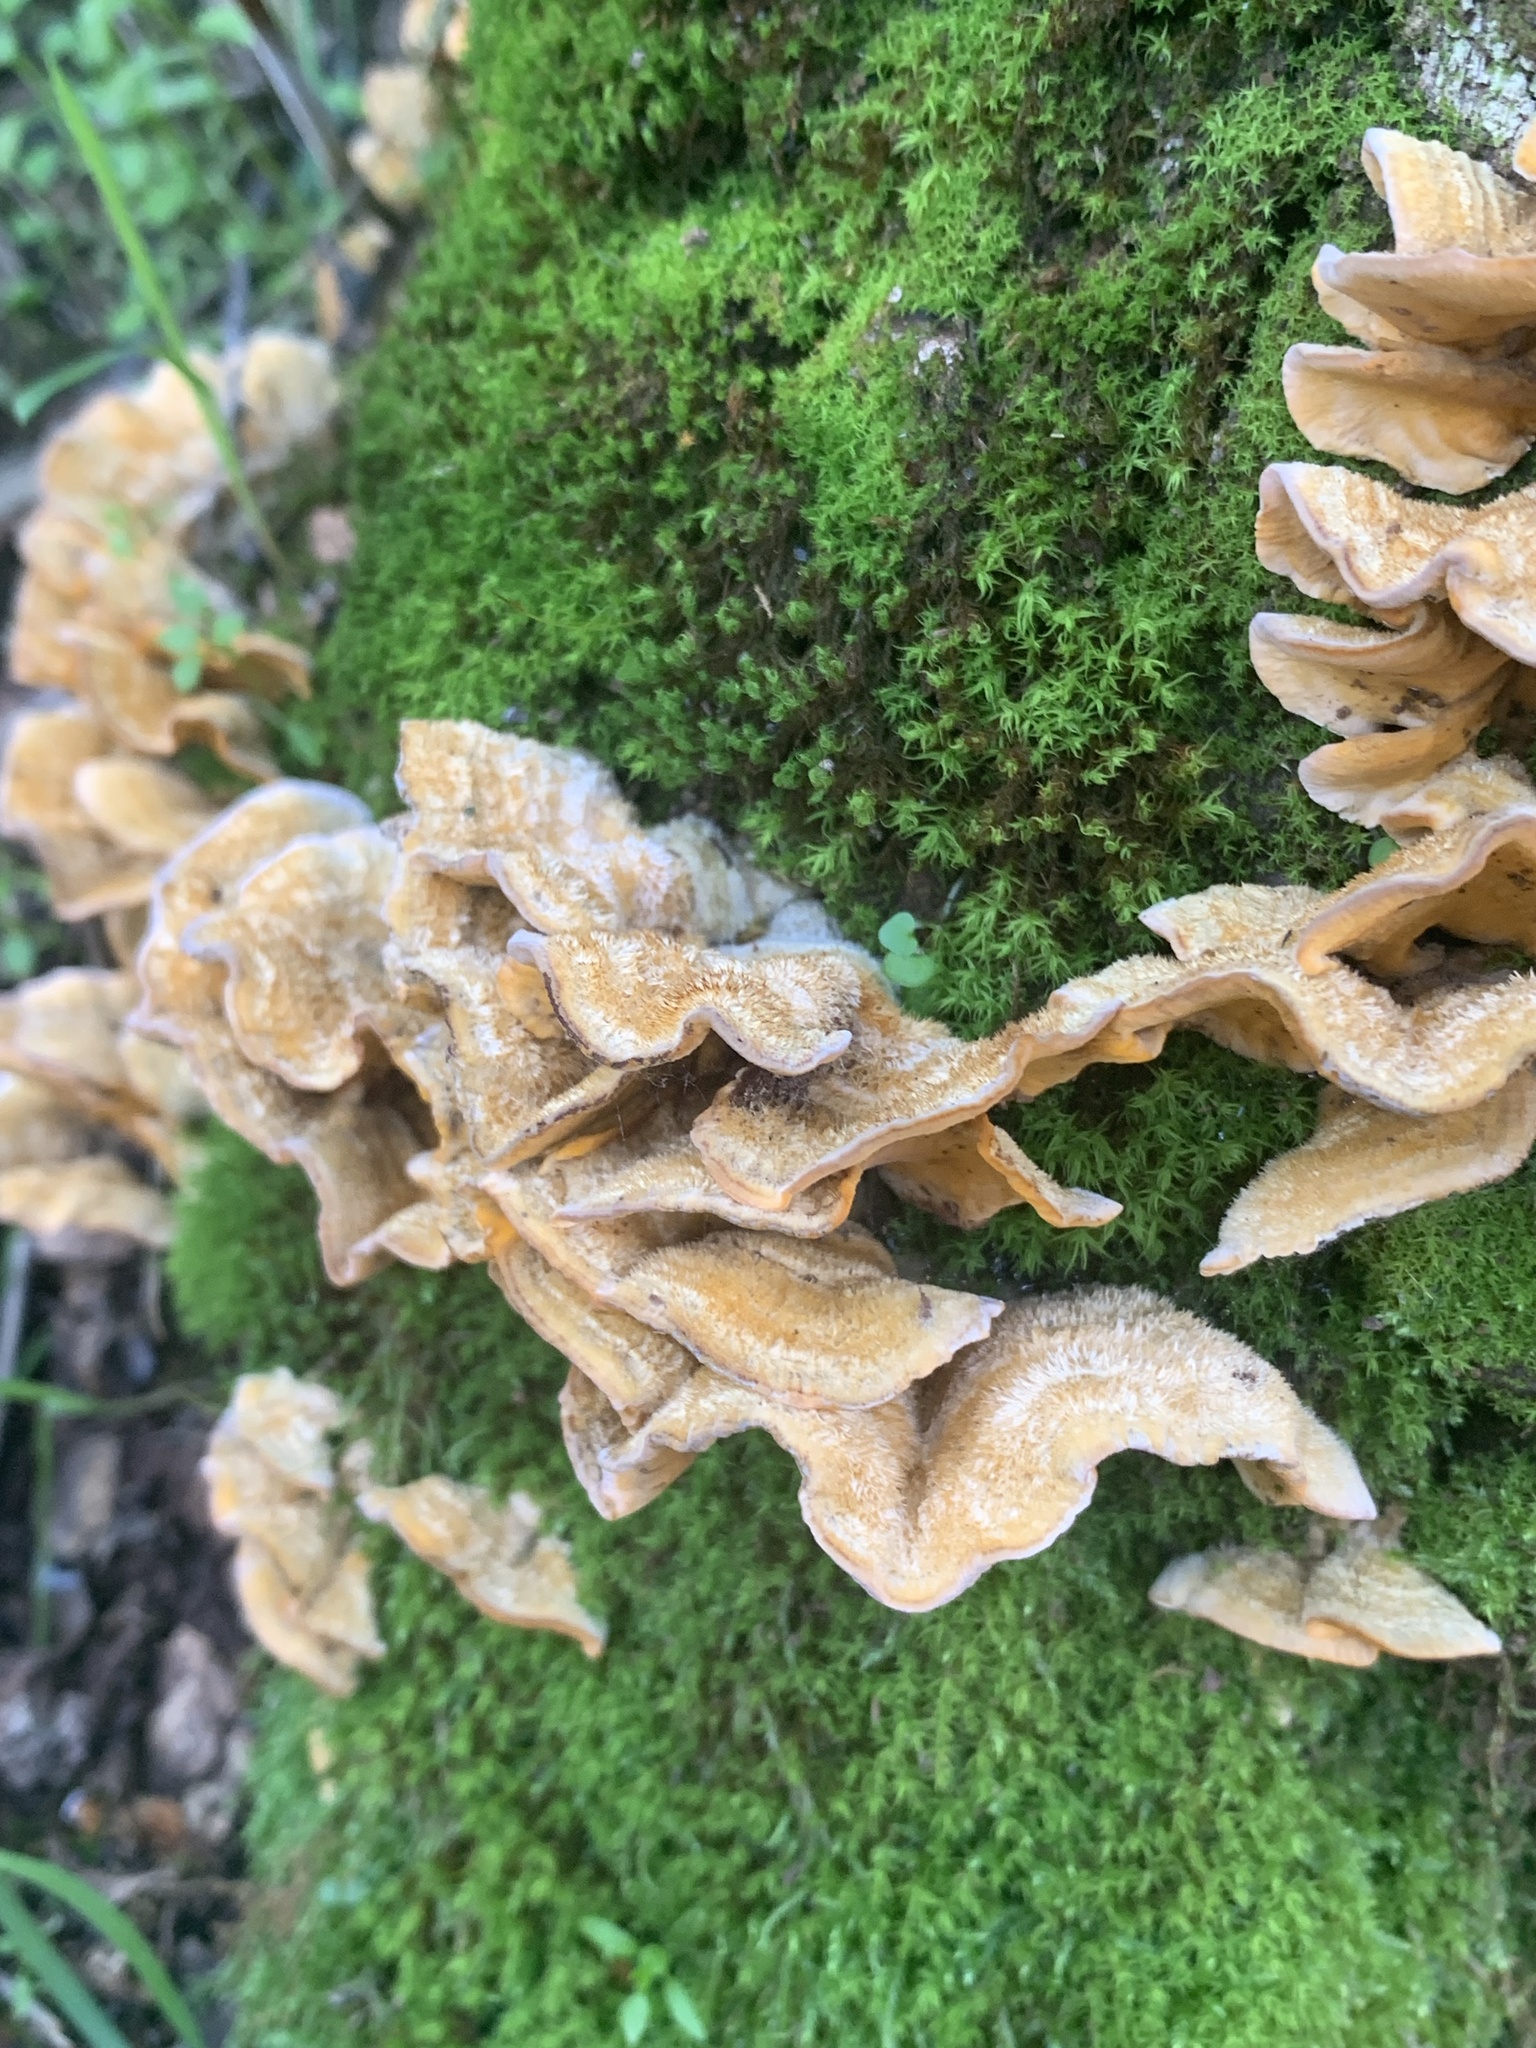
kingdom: Fungi
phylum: Basidiomycota
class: Agaricomycetes
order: Russulales
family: Stereaceae
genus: Stereum
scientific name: Stereum hirsutum
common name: Hairy curtain crust
